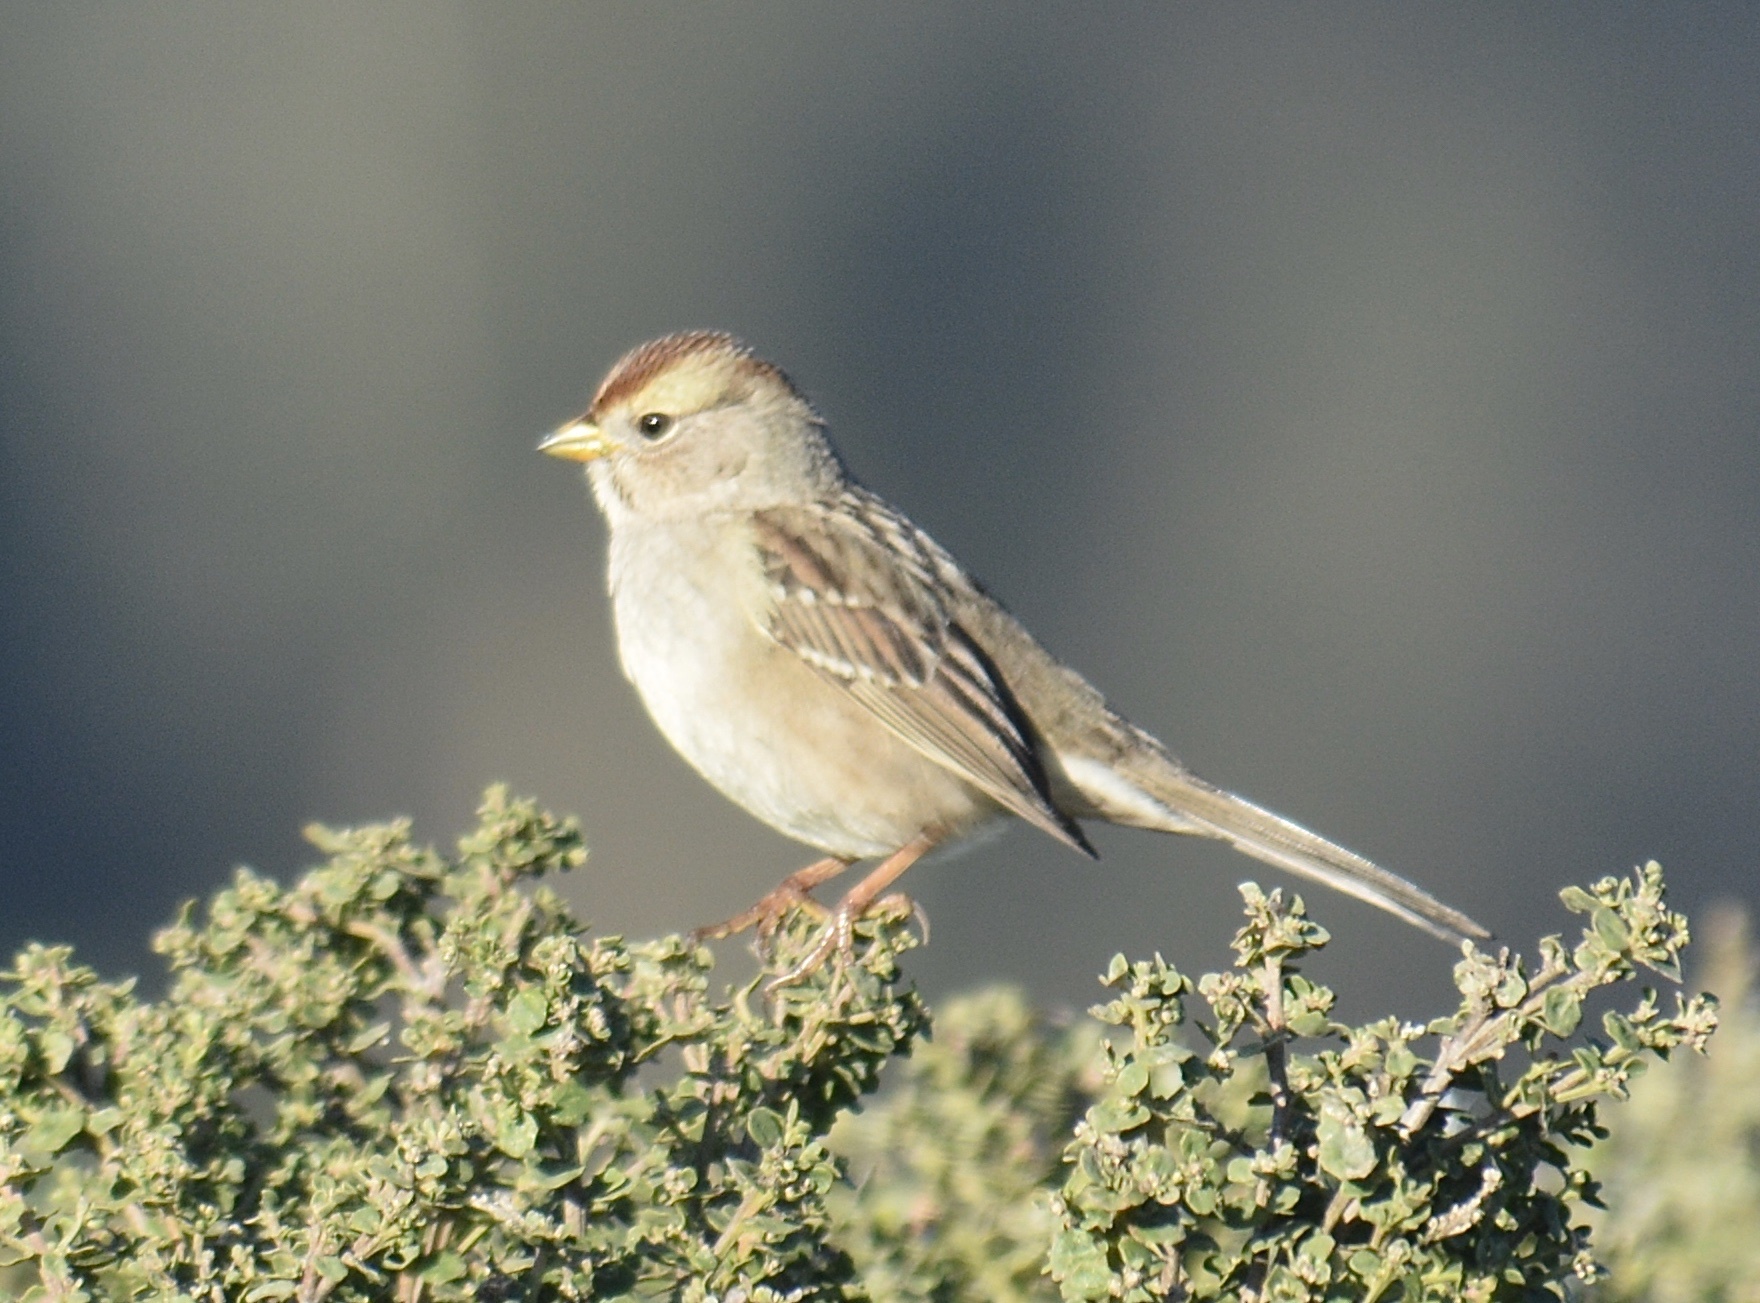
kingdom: Animalia
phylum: Chordata
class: Aves
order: Passeriformes
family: Passerellidae
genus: Zonotrichia
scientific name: Zonotrichia leucophrys
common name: White-crowned sparrow
